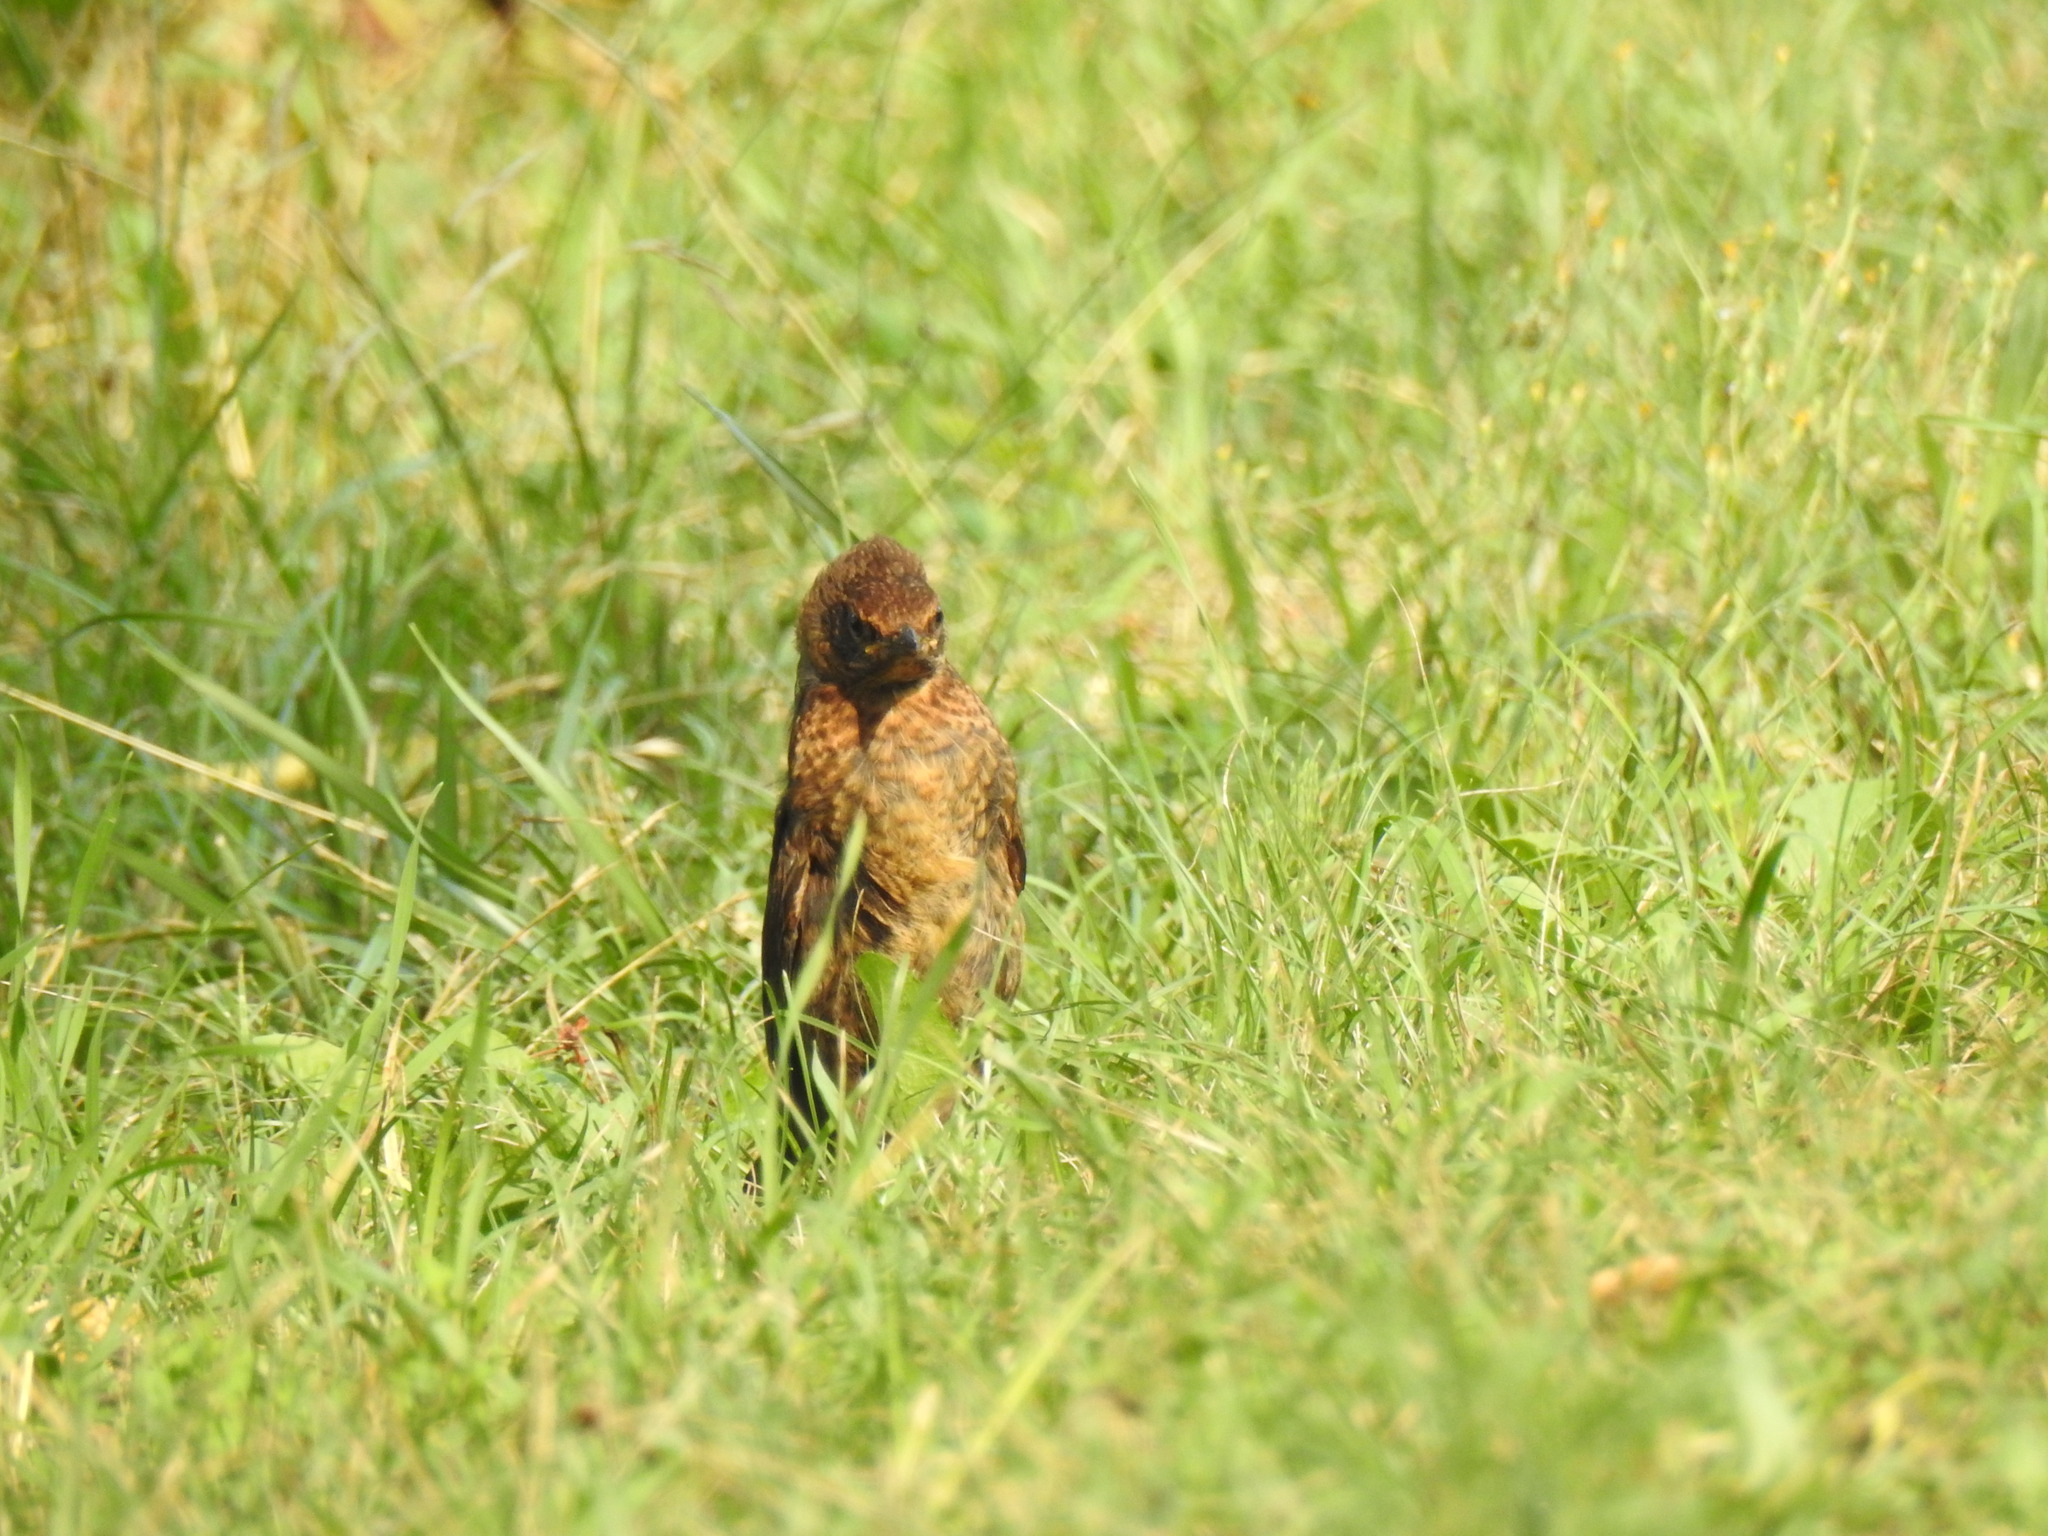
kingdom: Animalia
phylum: Chordata
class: Aves
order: Passeriformes
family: Turdidae
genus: Turdus
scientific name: Turdus merula
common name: Common blackbird
